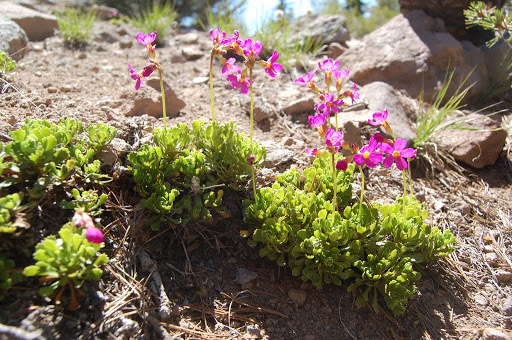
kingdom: Plantae
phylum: Tracheophyta
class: Magnoliopsida
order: Ericales
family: Primulaceae
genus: Primula
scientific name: Primula suffrutescens
